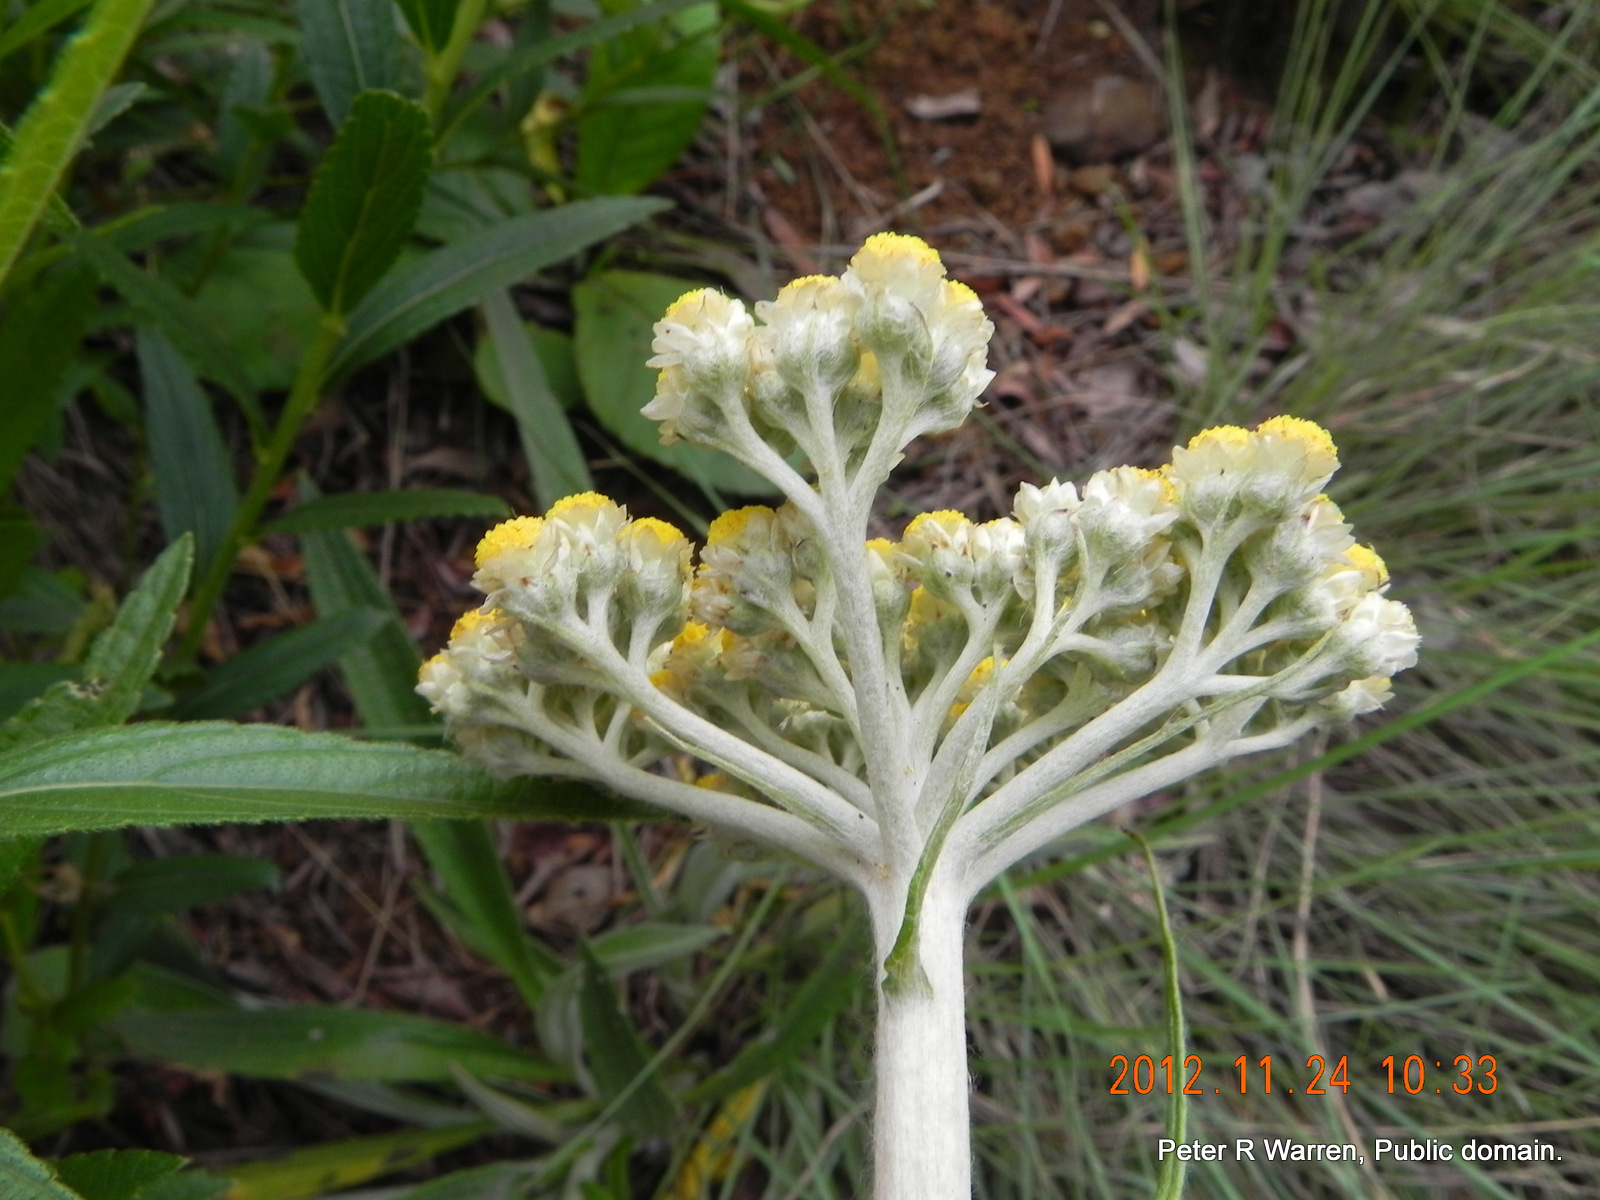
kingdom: Plantae
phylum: Tracheophyta
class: Magnoliopsida
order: Asterales
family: Asteraceae
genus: Helichrysum
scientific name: Helichrysum nudifolium
